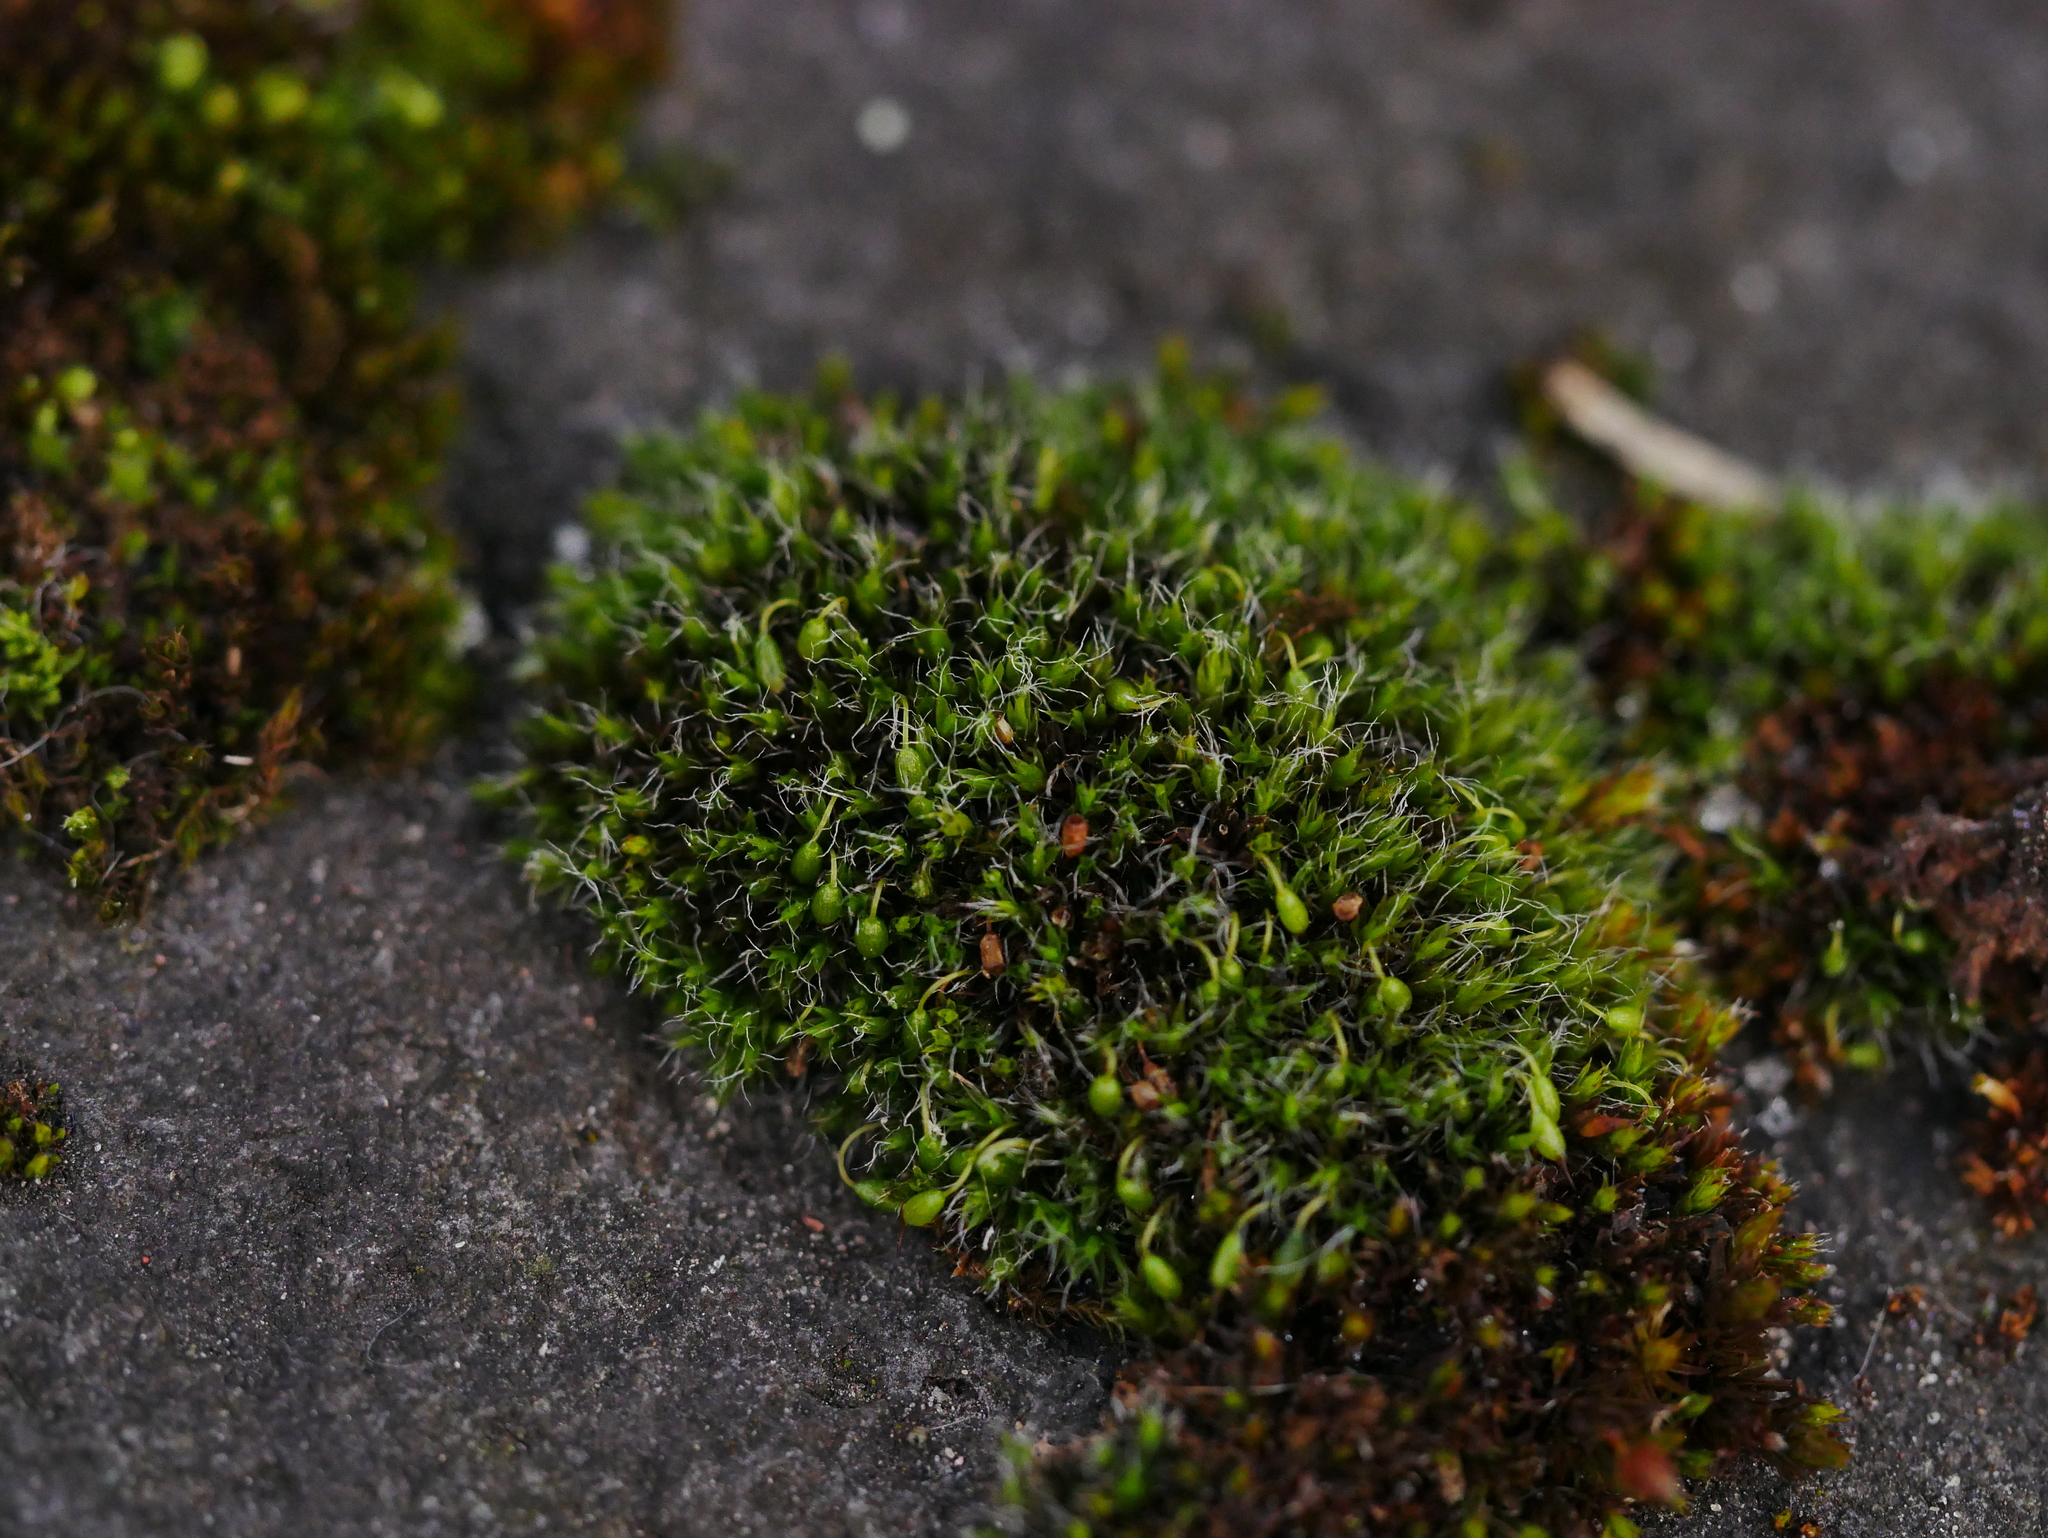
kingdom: Plantae
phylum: Bryophyta
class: Bryopsida
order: Grimmiales
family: Grimmiaceae
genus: Grimmia
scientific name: Grimmia pulvinata
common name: Grey-cushioned grimmia
